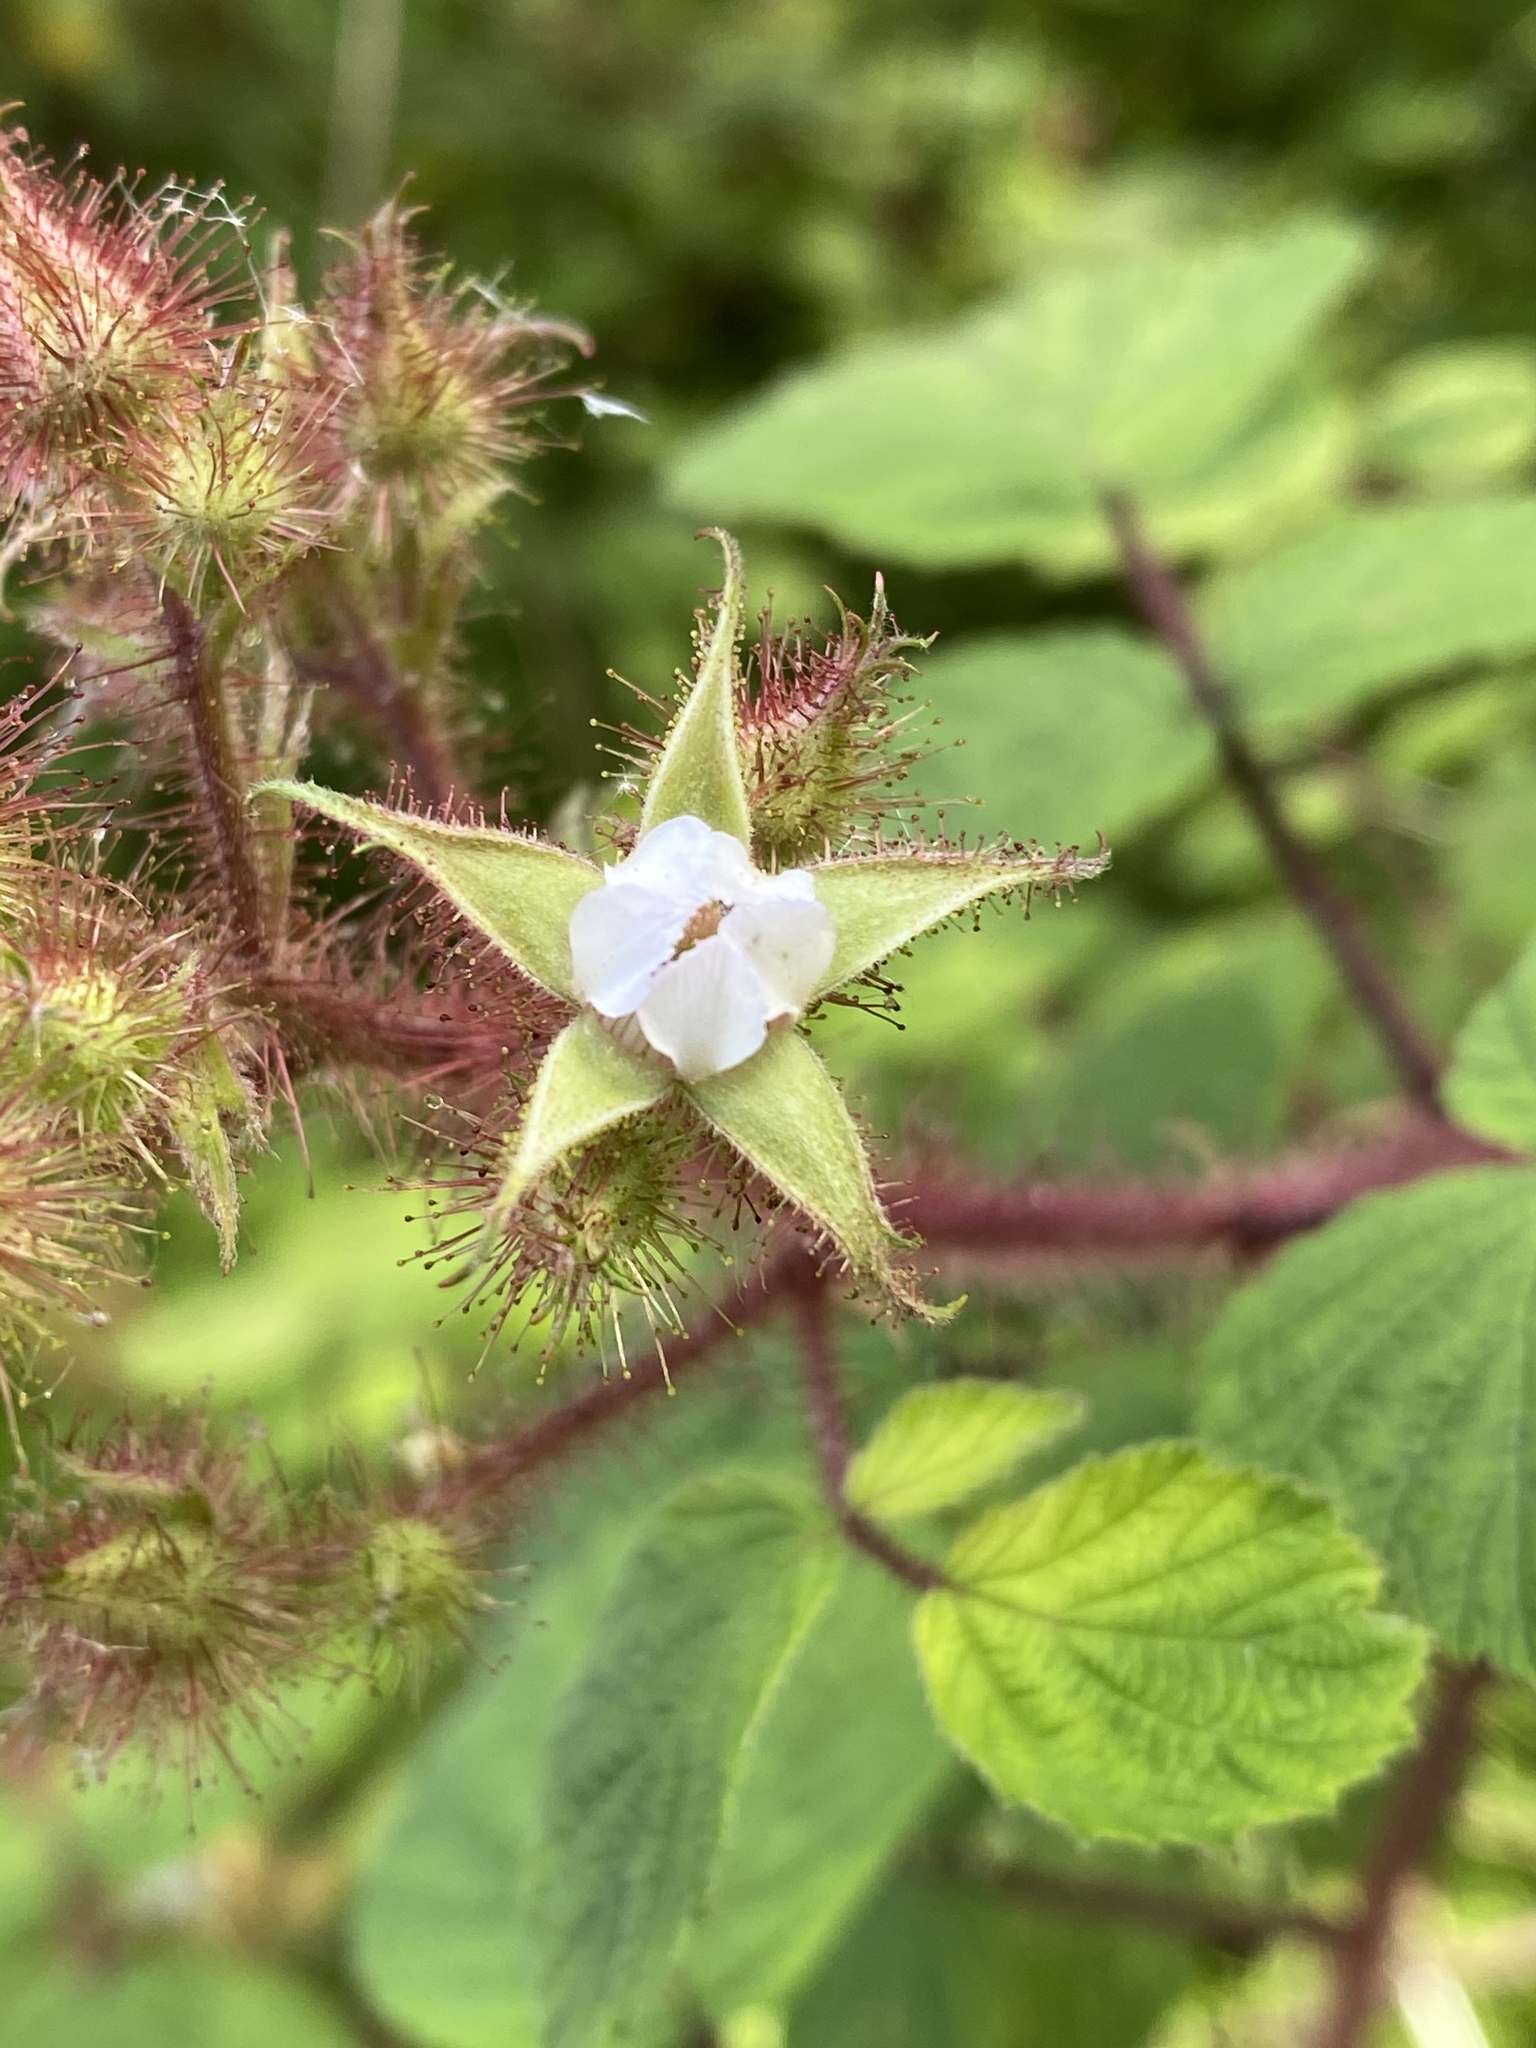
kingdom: Plantae
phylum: Tracheophyta
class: Magnoliopsida
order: Rosales
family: Rosaceae
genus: Rubus
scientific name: Rubus phoenicolasius
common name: Japanese wineberry
